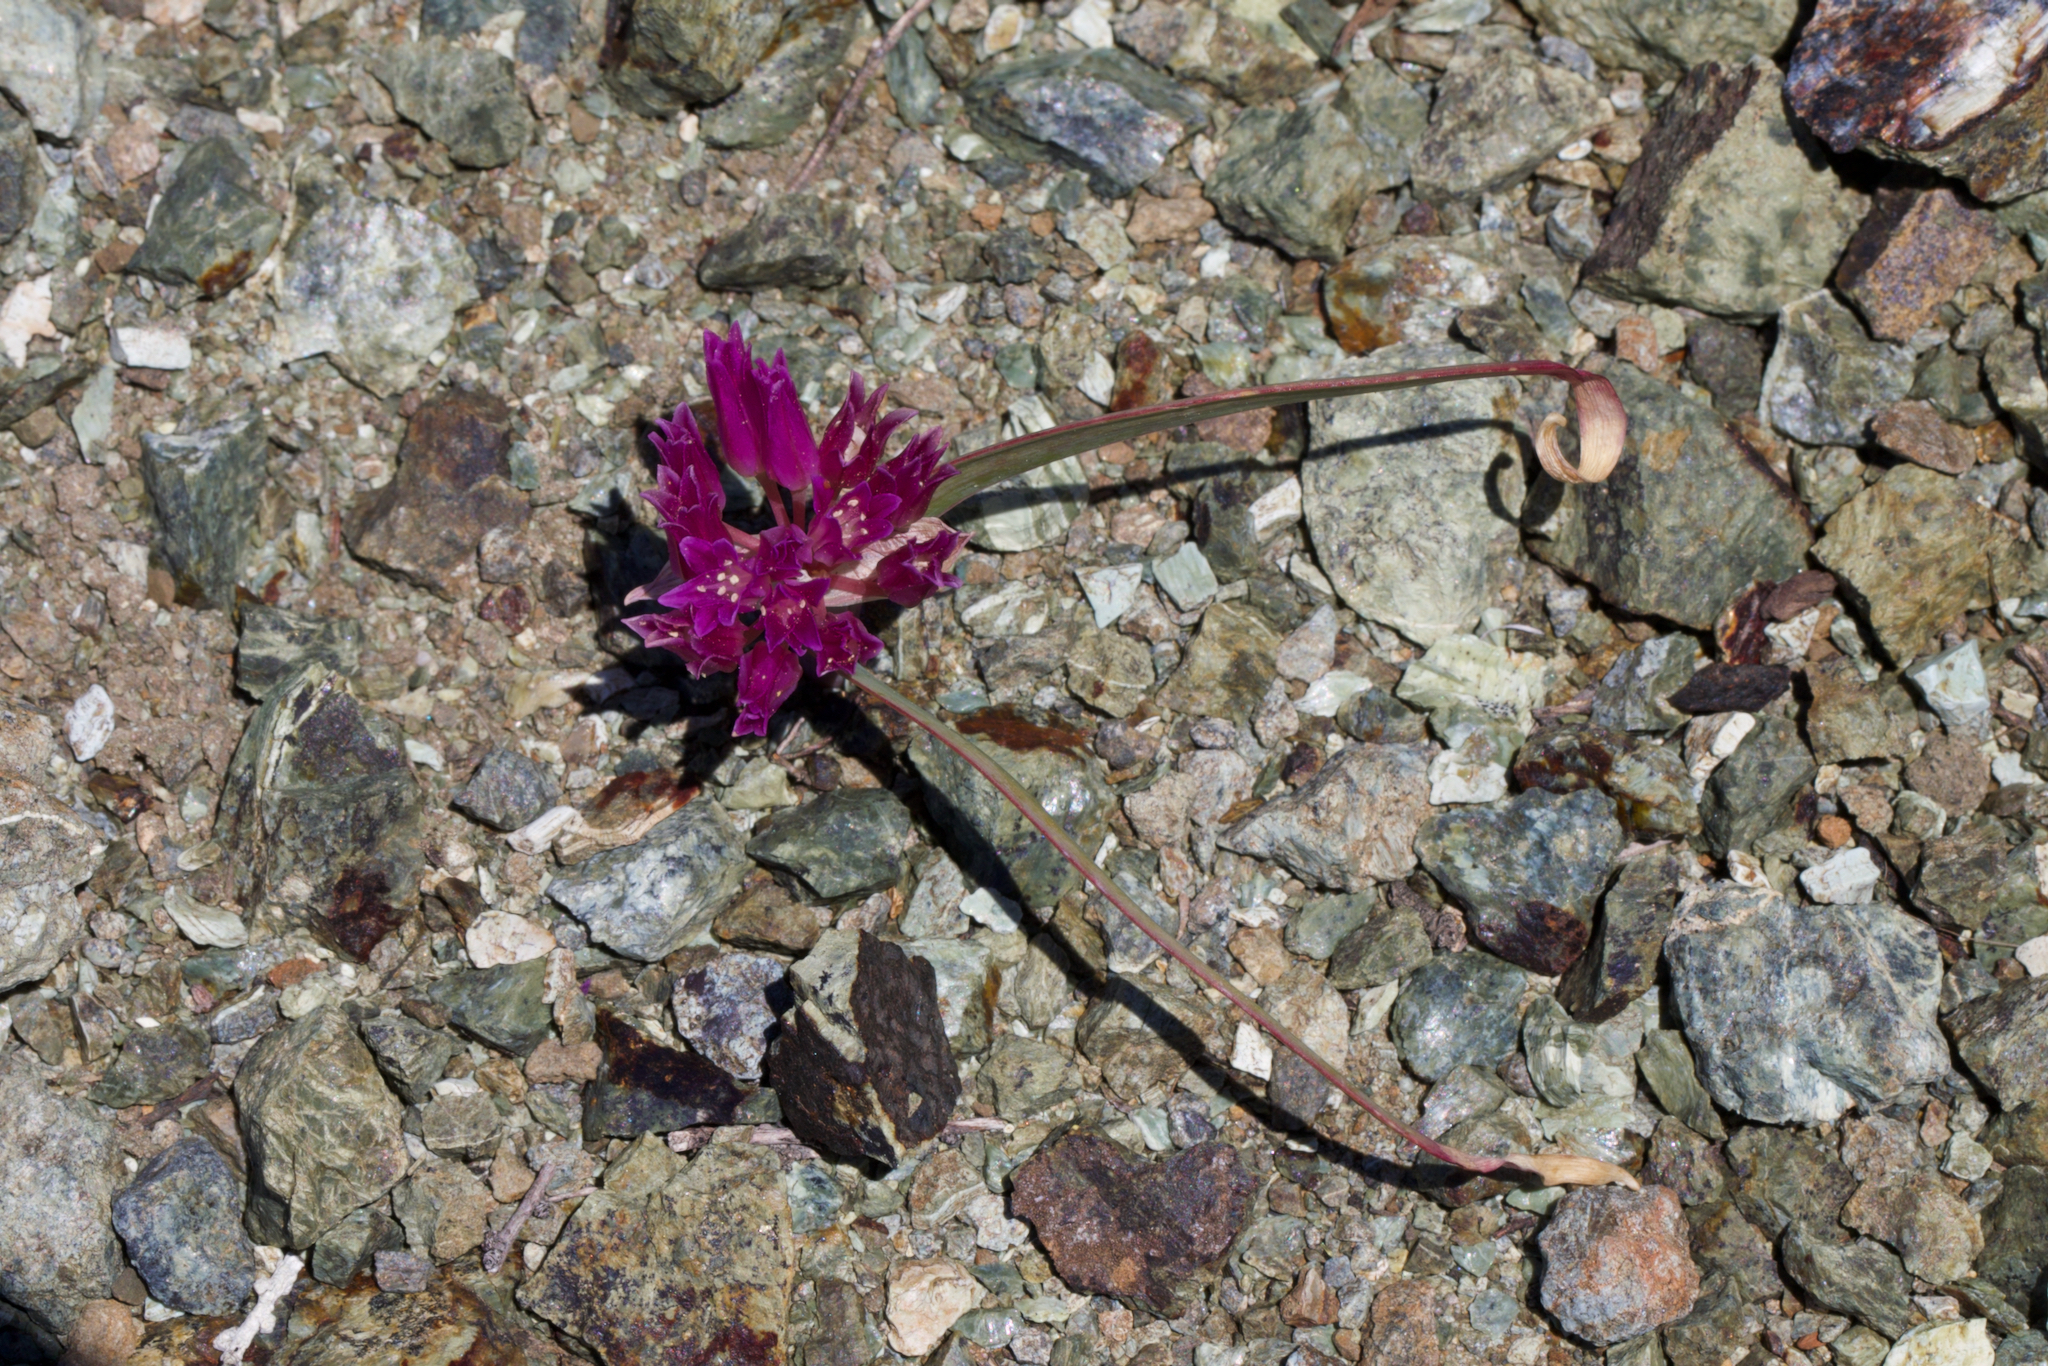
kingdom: Plantae
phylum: Tracheophyta
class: Liliopsida
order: Asparagales
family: Amaryllidaceae
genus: Allium
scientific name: Allium falcifolium
